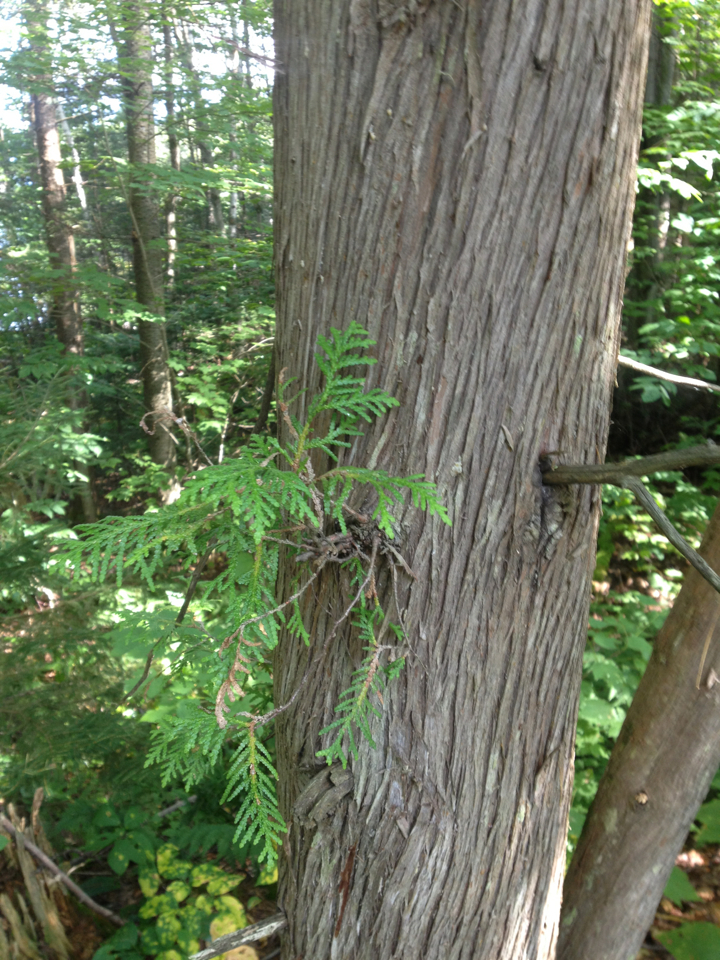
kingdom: Plantae
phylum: Tracheophyta
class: Pinopsida
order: Pinales
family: Cupressaceae
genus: Thuja
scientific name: Thuja occidentalis
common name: Northern white-cedar
